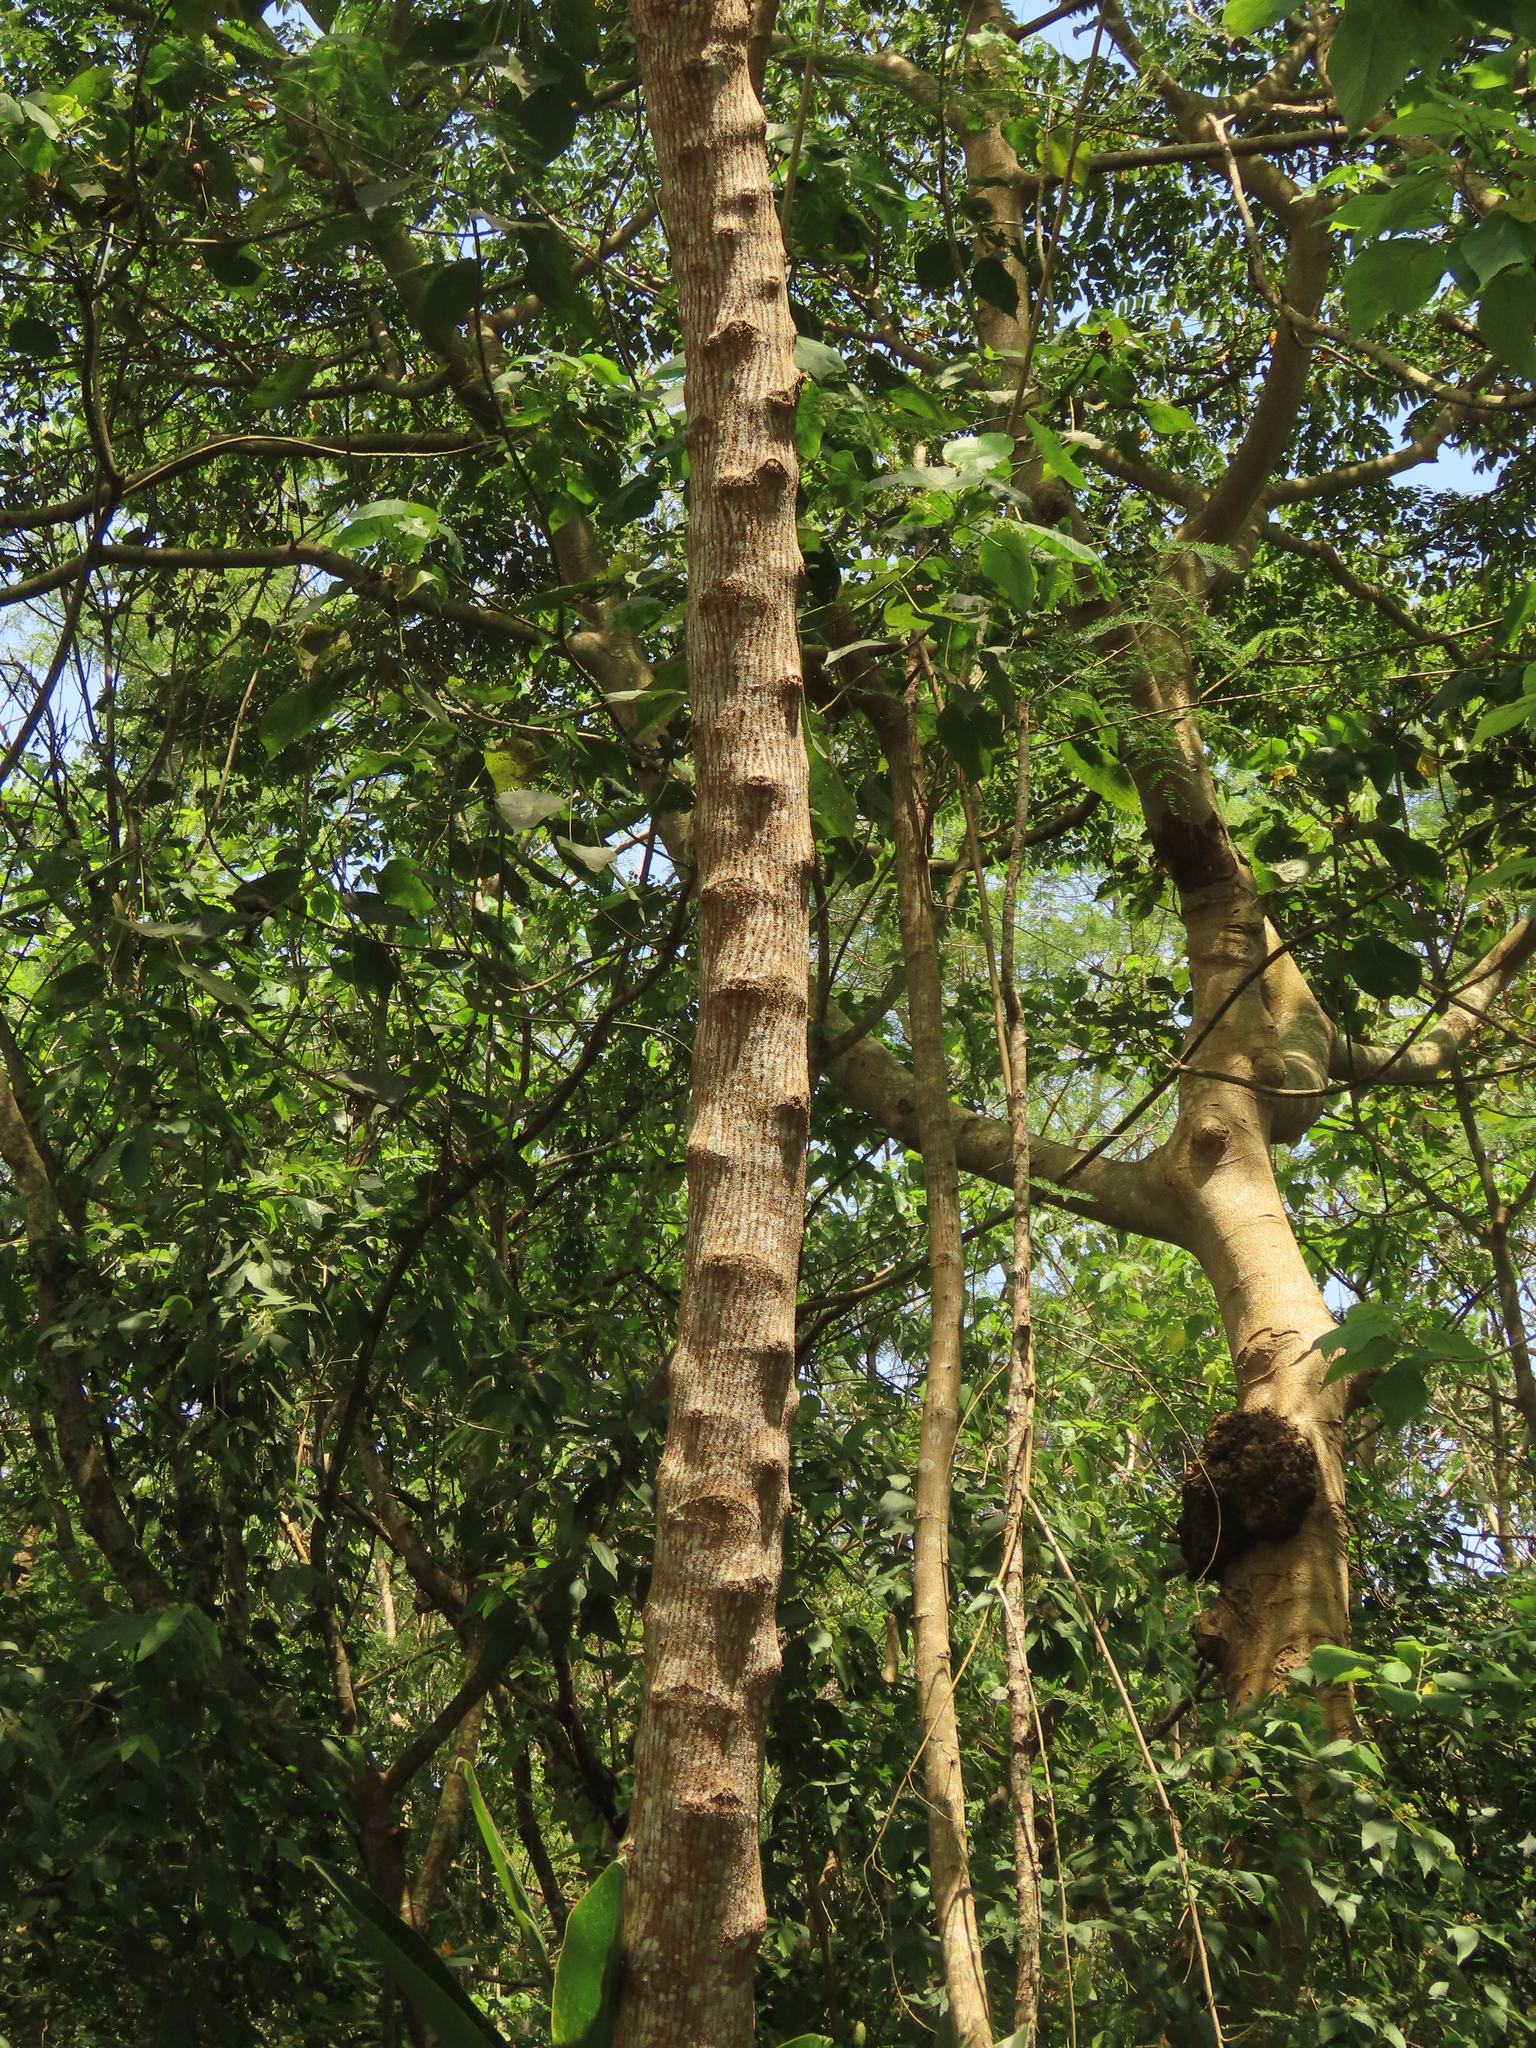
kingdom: Plantae
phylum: Tracheophyta
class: Magnoliopsida
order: Fabales
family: Fabaceae
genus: Leucaena
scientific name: Leucaena leucocephala
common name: White leadtree
